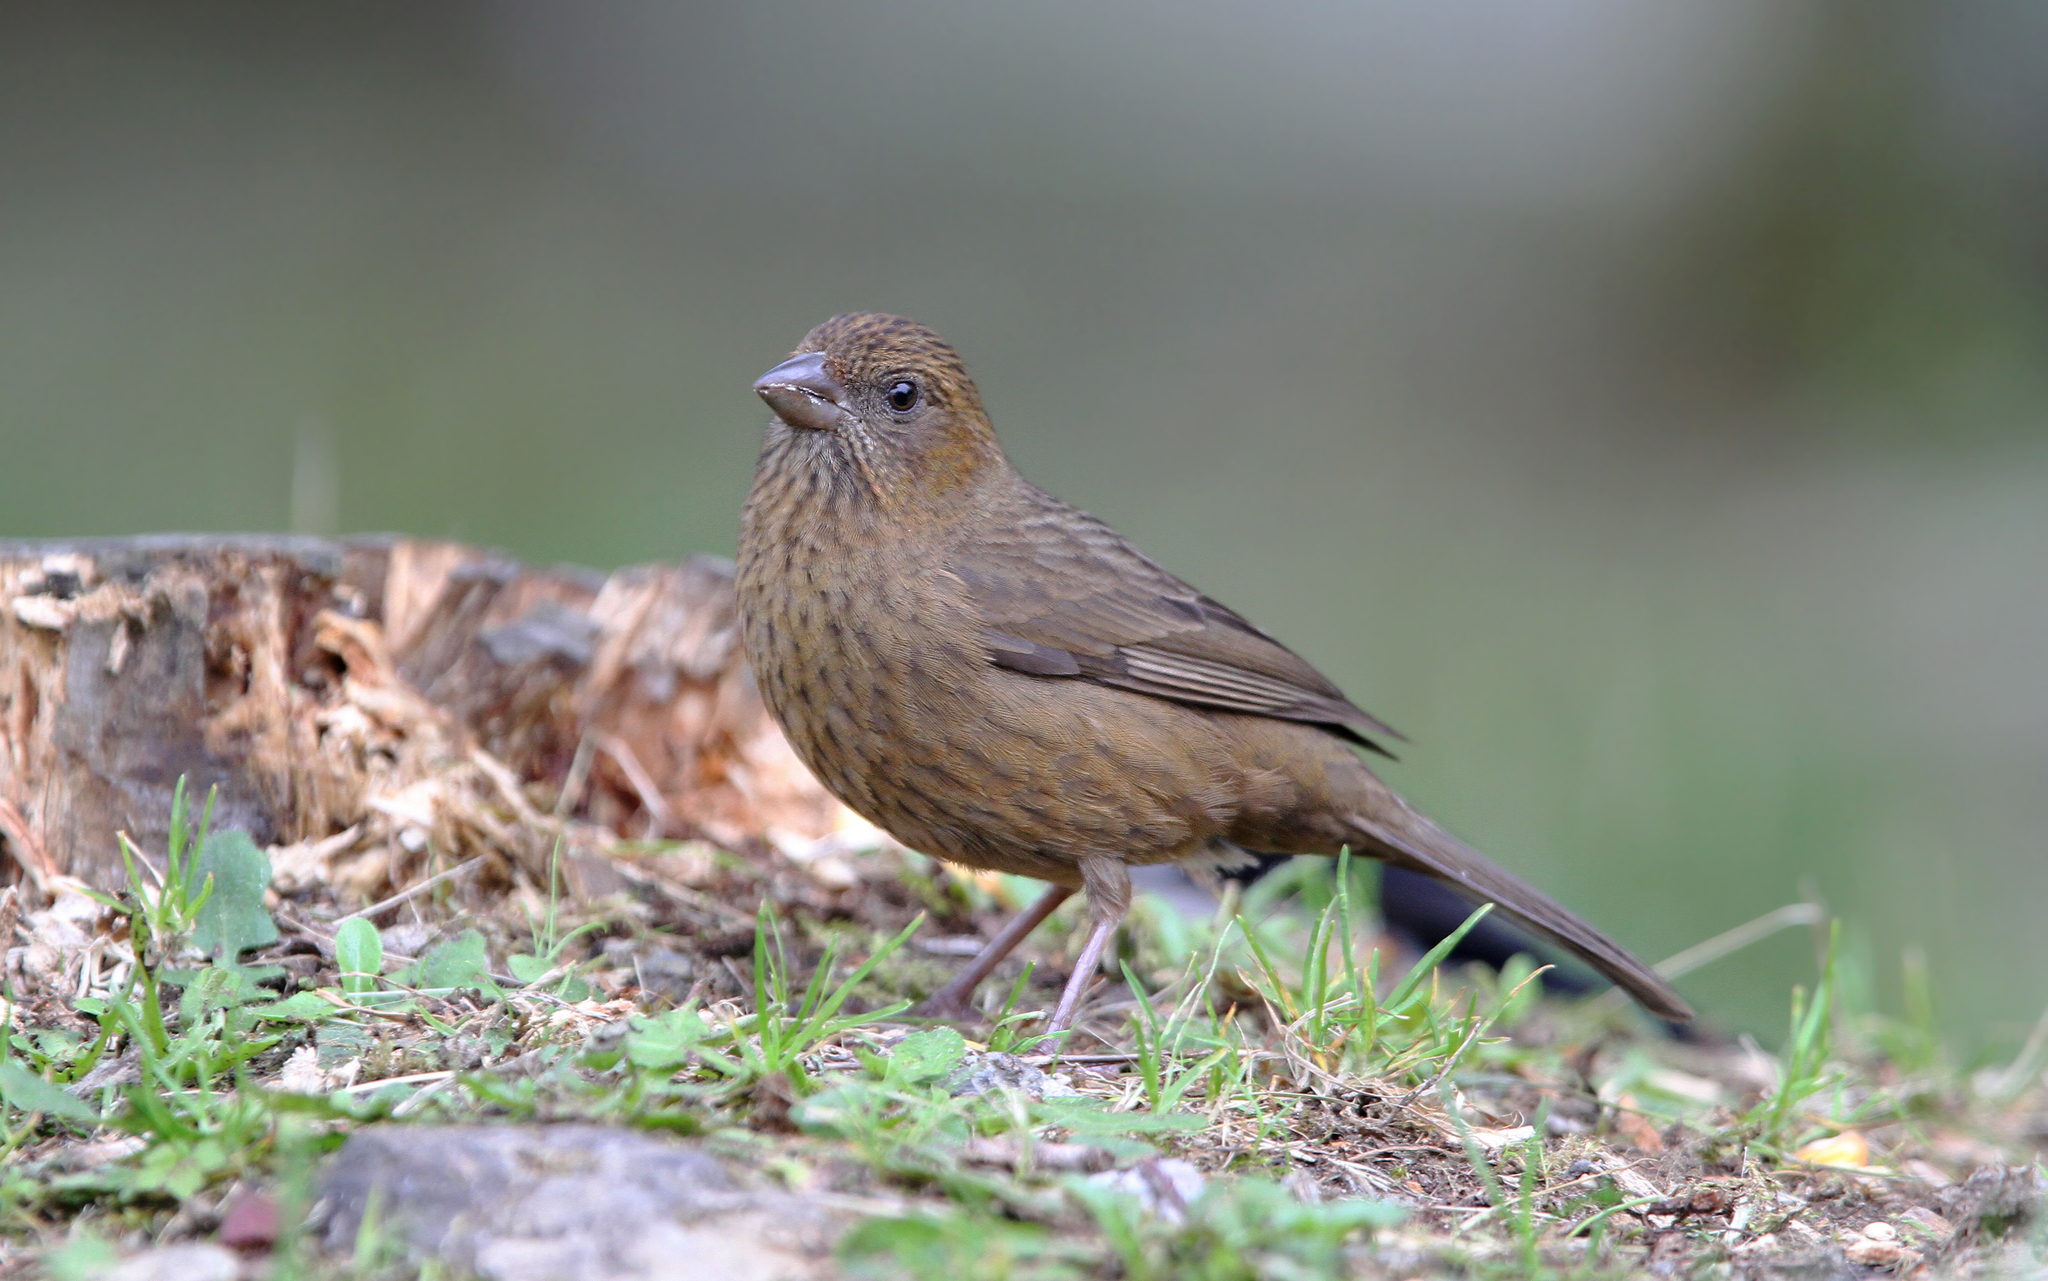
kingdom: Animalia
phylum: Chordata
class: Aves
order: Passeriformes
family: Fringillidae
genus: Carpodacus
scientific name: Carpodacus formosanus
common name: Taiwan rosefinch
